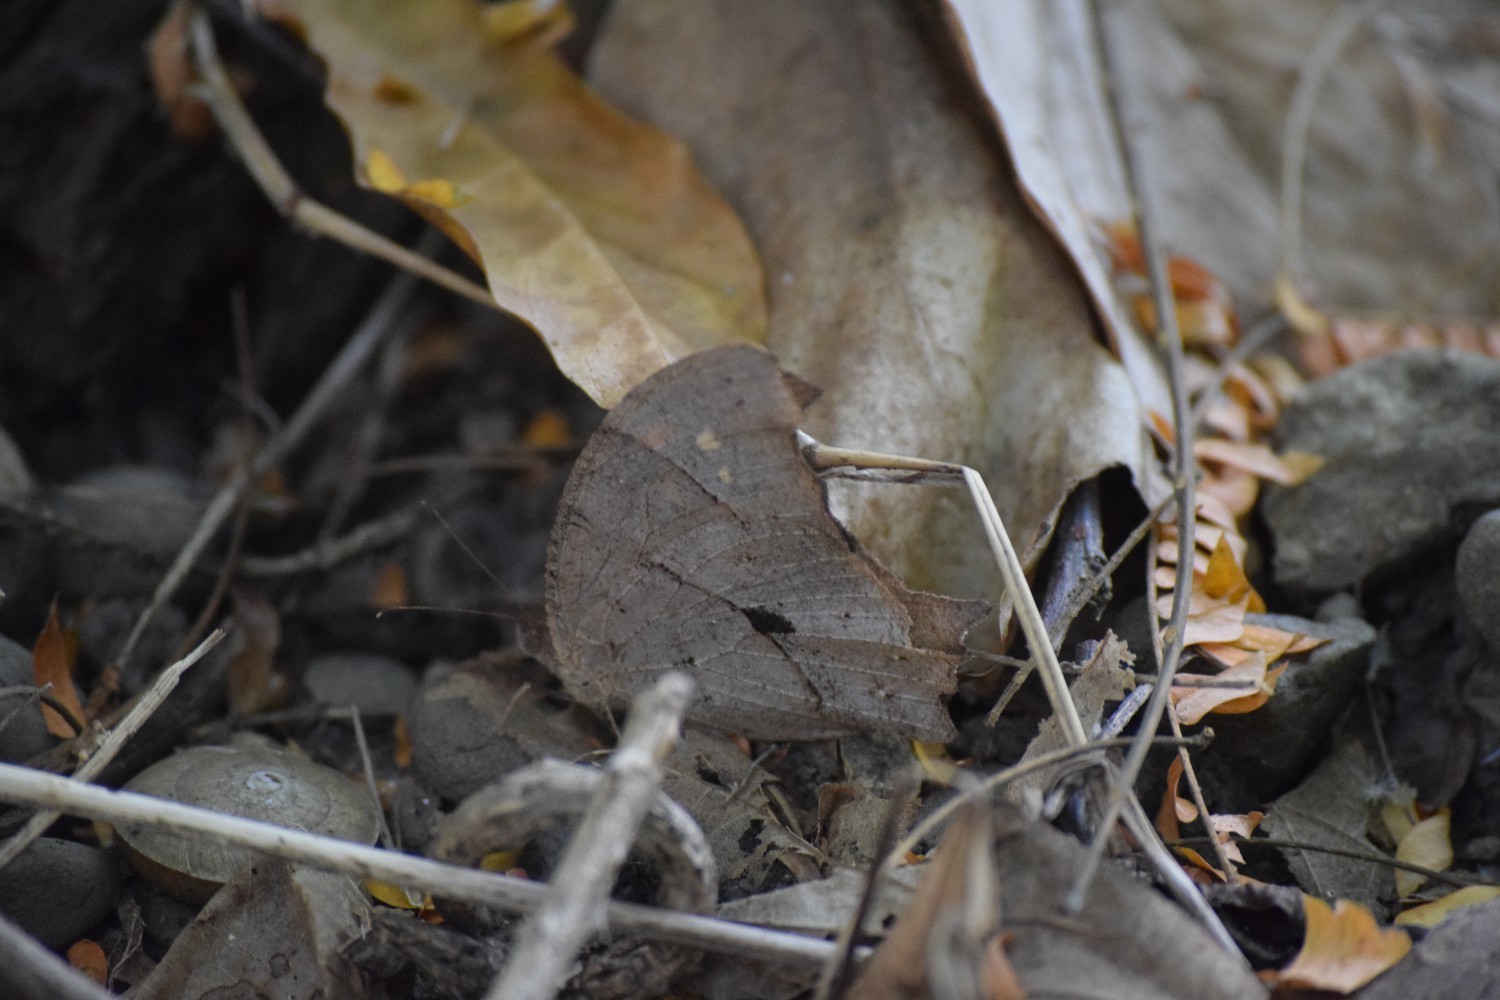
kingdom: Animalia
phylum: Arthropoda
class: Insecta
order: Lepidoptera
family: Nymphalidae
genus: Melanitis
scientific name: Melanitis leda
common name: Twilight brown
